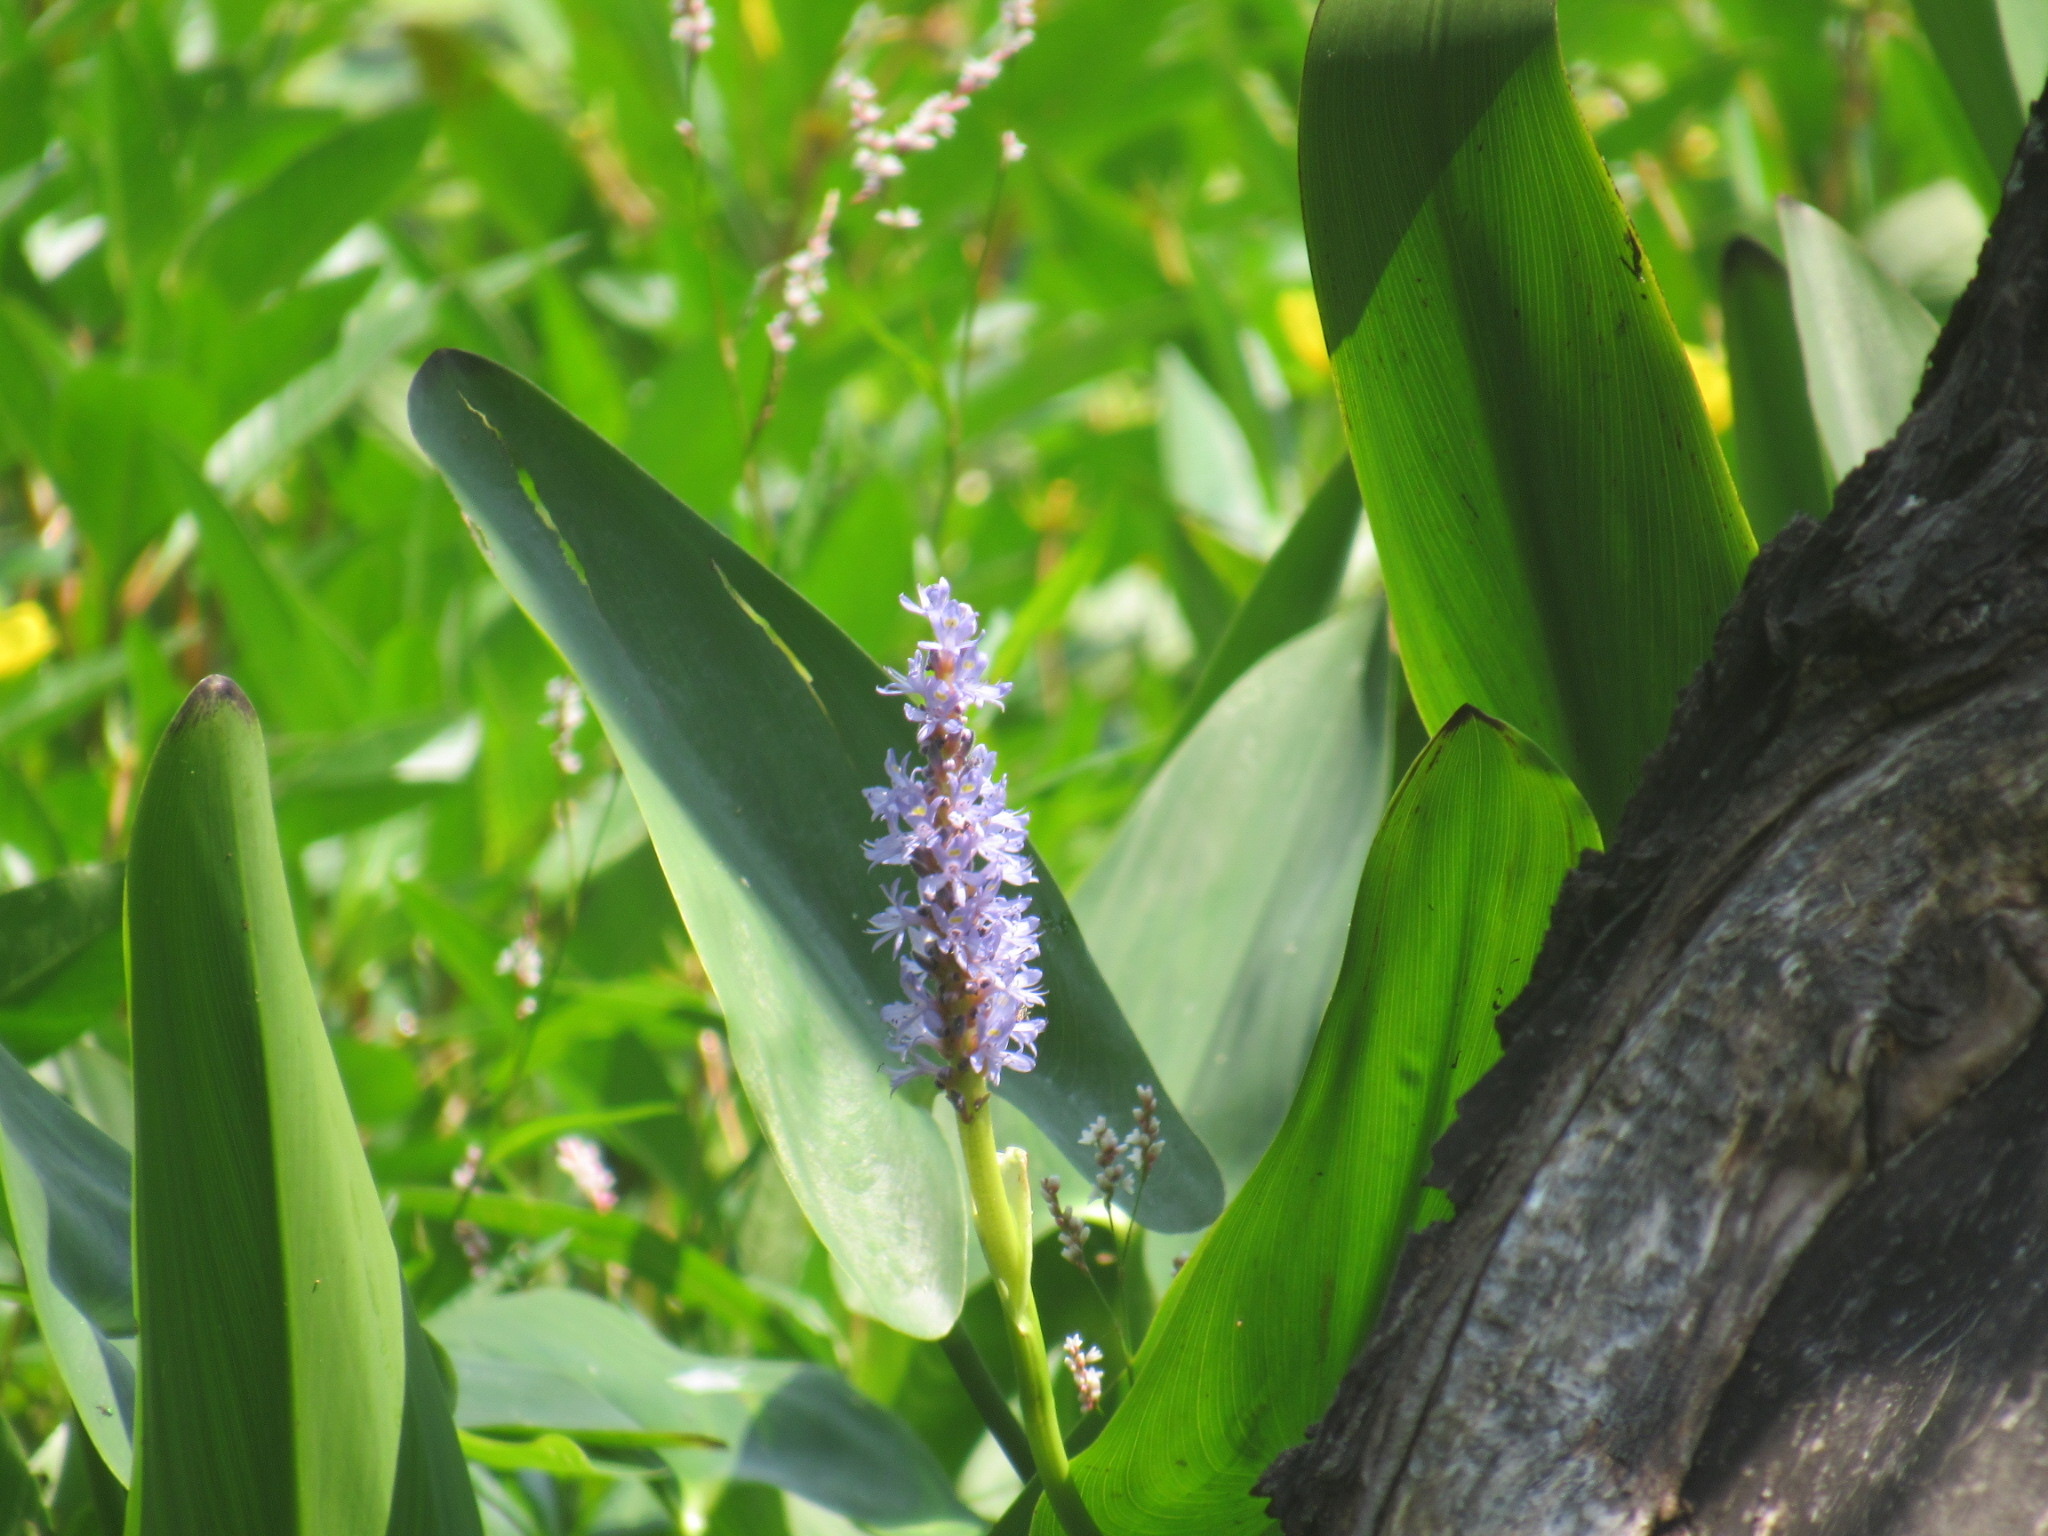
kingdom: Plantae
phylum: Tracheophyta
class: Liliopsida
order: Commelinales
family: Pontederiaceae
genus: Pontederia
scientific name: Pontederia cordata
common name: Pickerelweed
